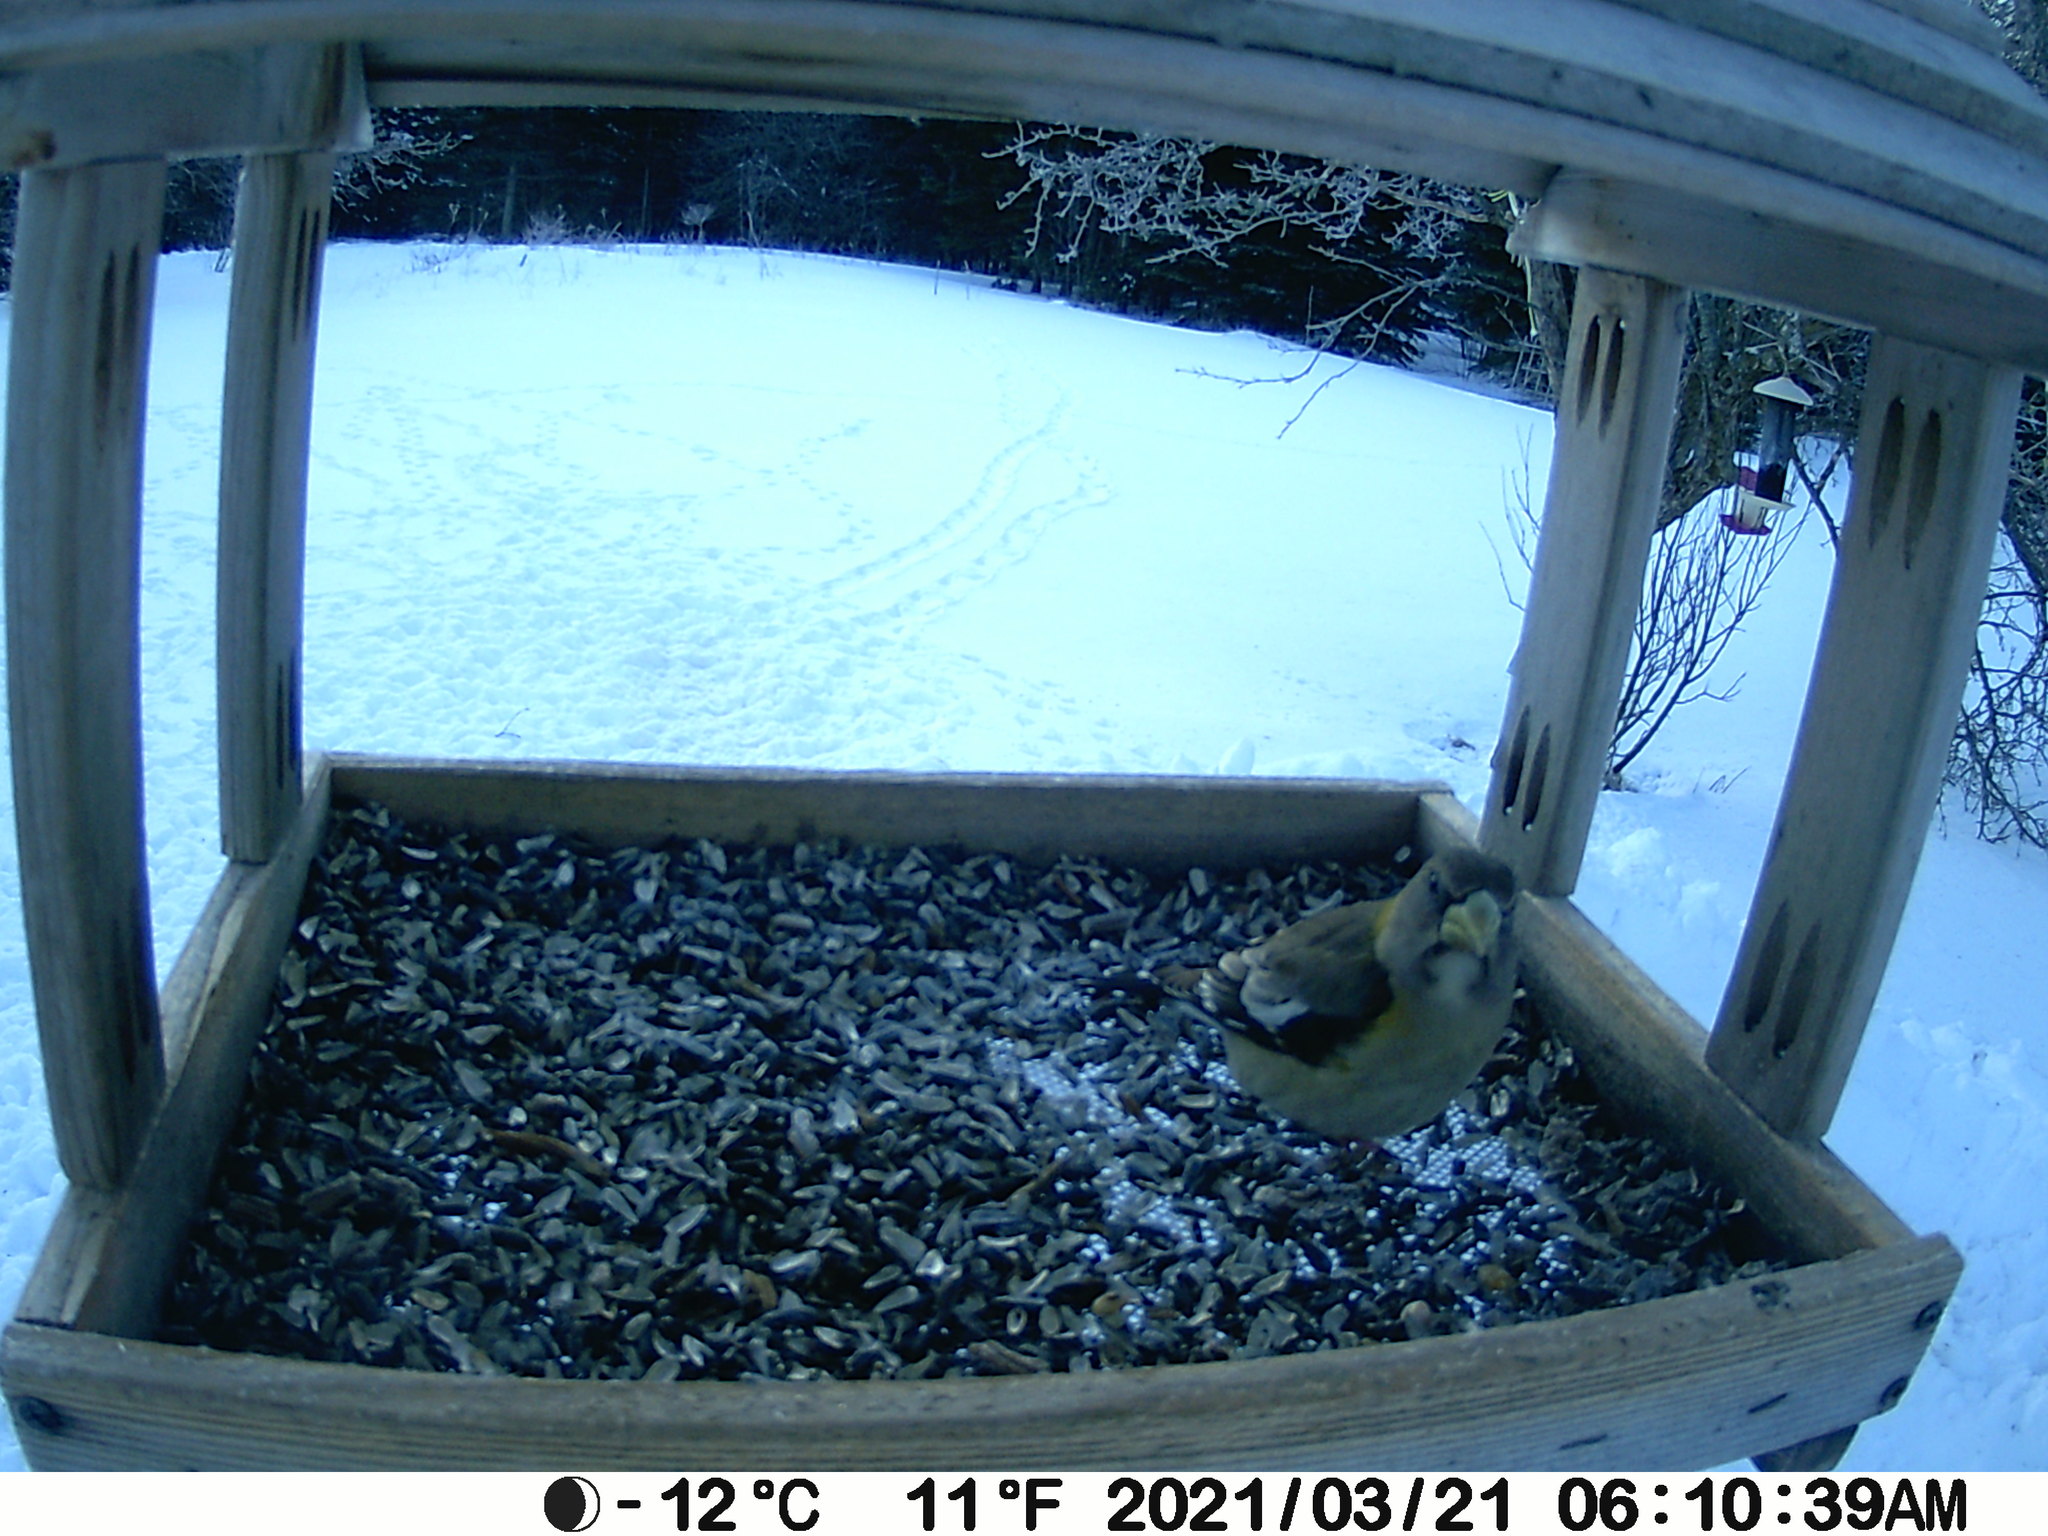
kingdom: Animalia
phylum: Chordata
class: Aves
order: Passeriformes
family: Fringillidae
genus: Hesperiphona
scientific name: Hesperiphona vespertina
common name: Evening grosbeak
